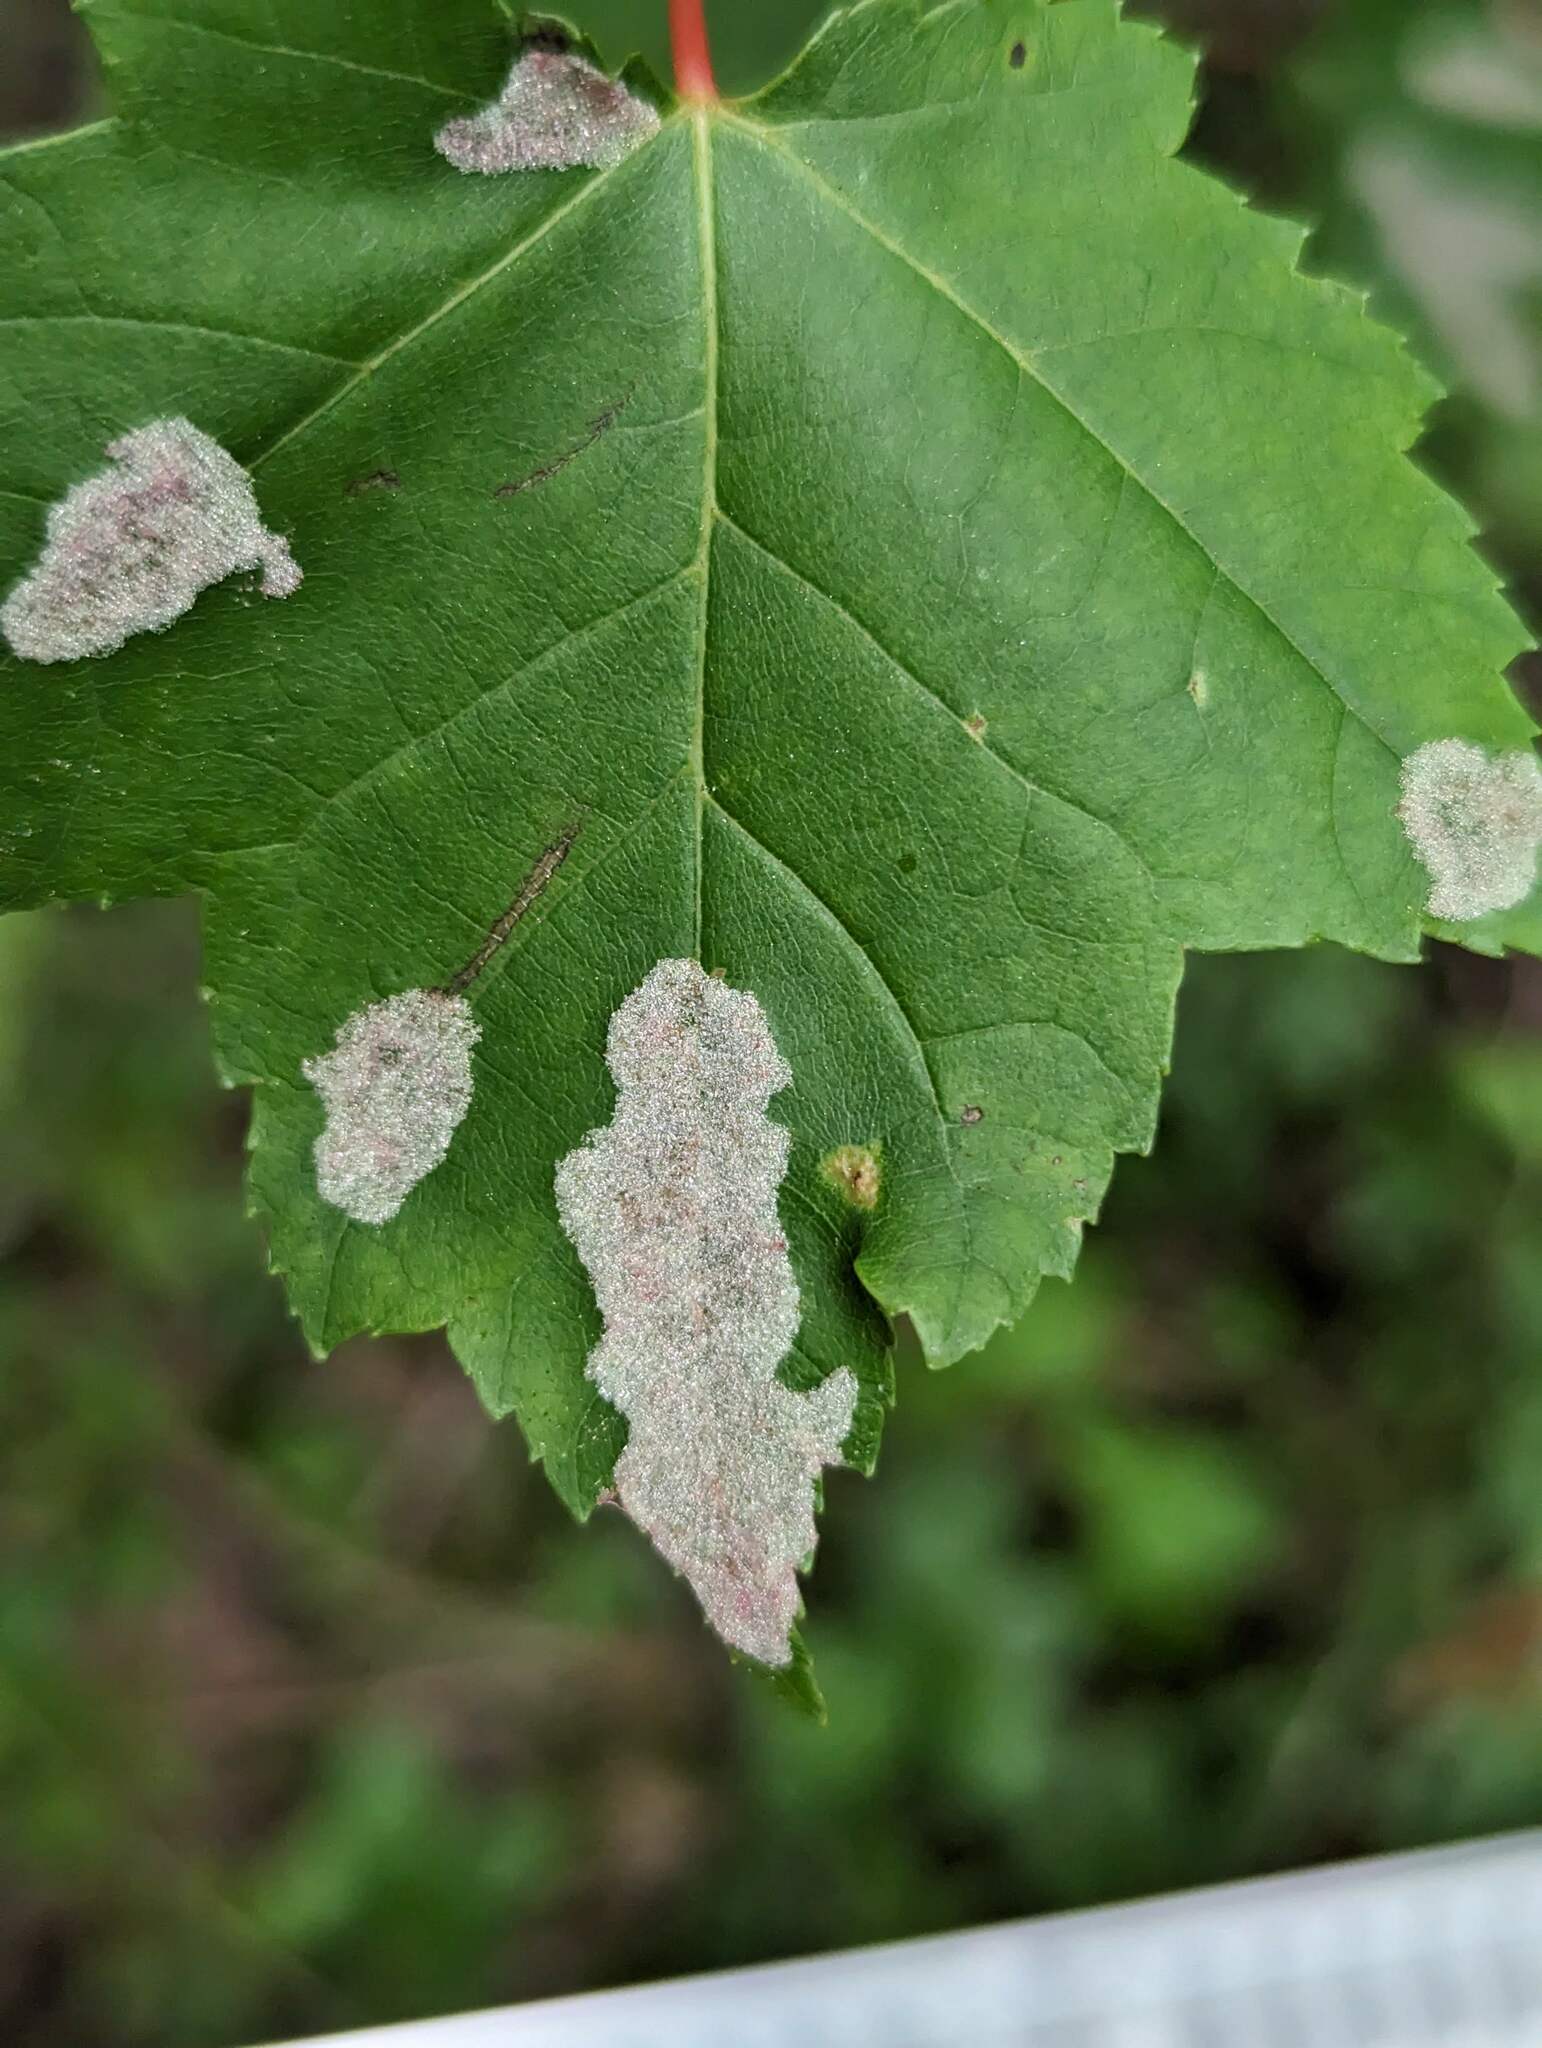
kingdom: Plantae
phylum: Tracheophyta
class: Magnoliopsida
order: Sapindales
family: Sapindaceae
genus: Acer
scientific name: Acer rubrum
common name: Red maple
